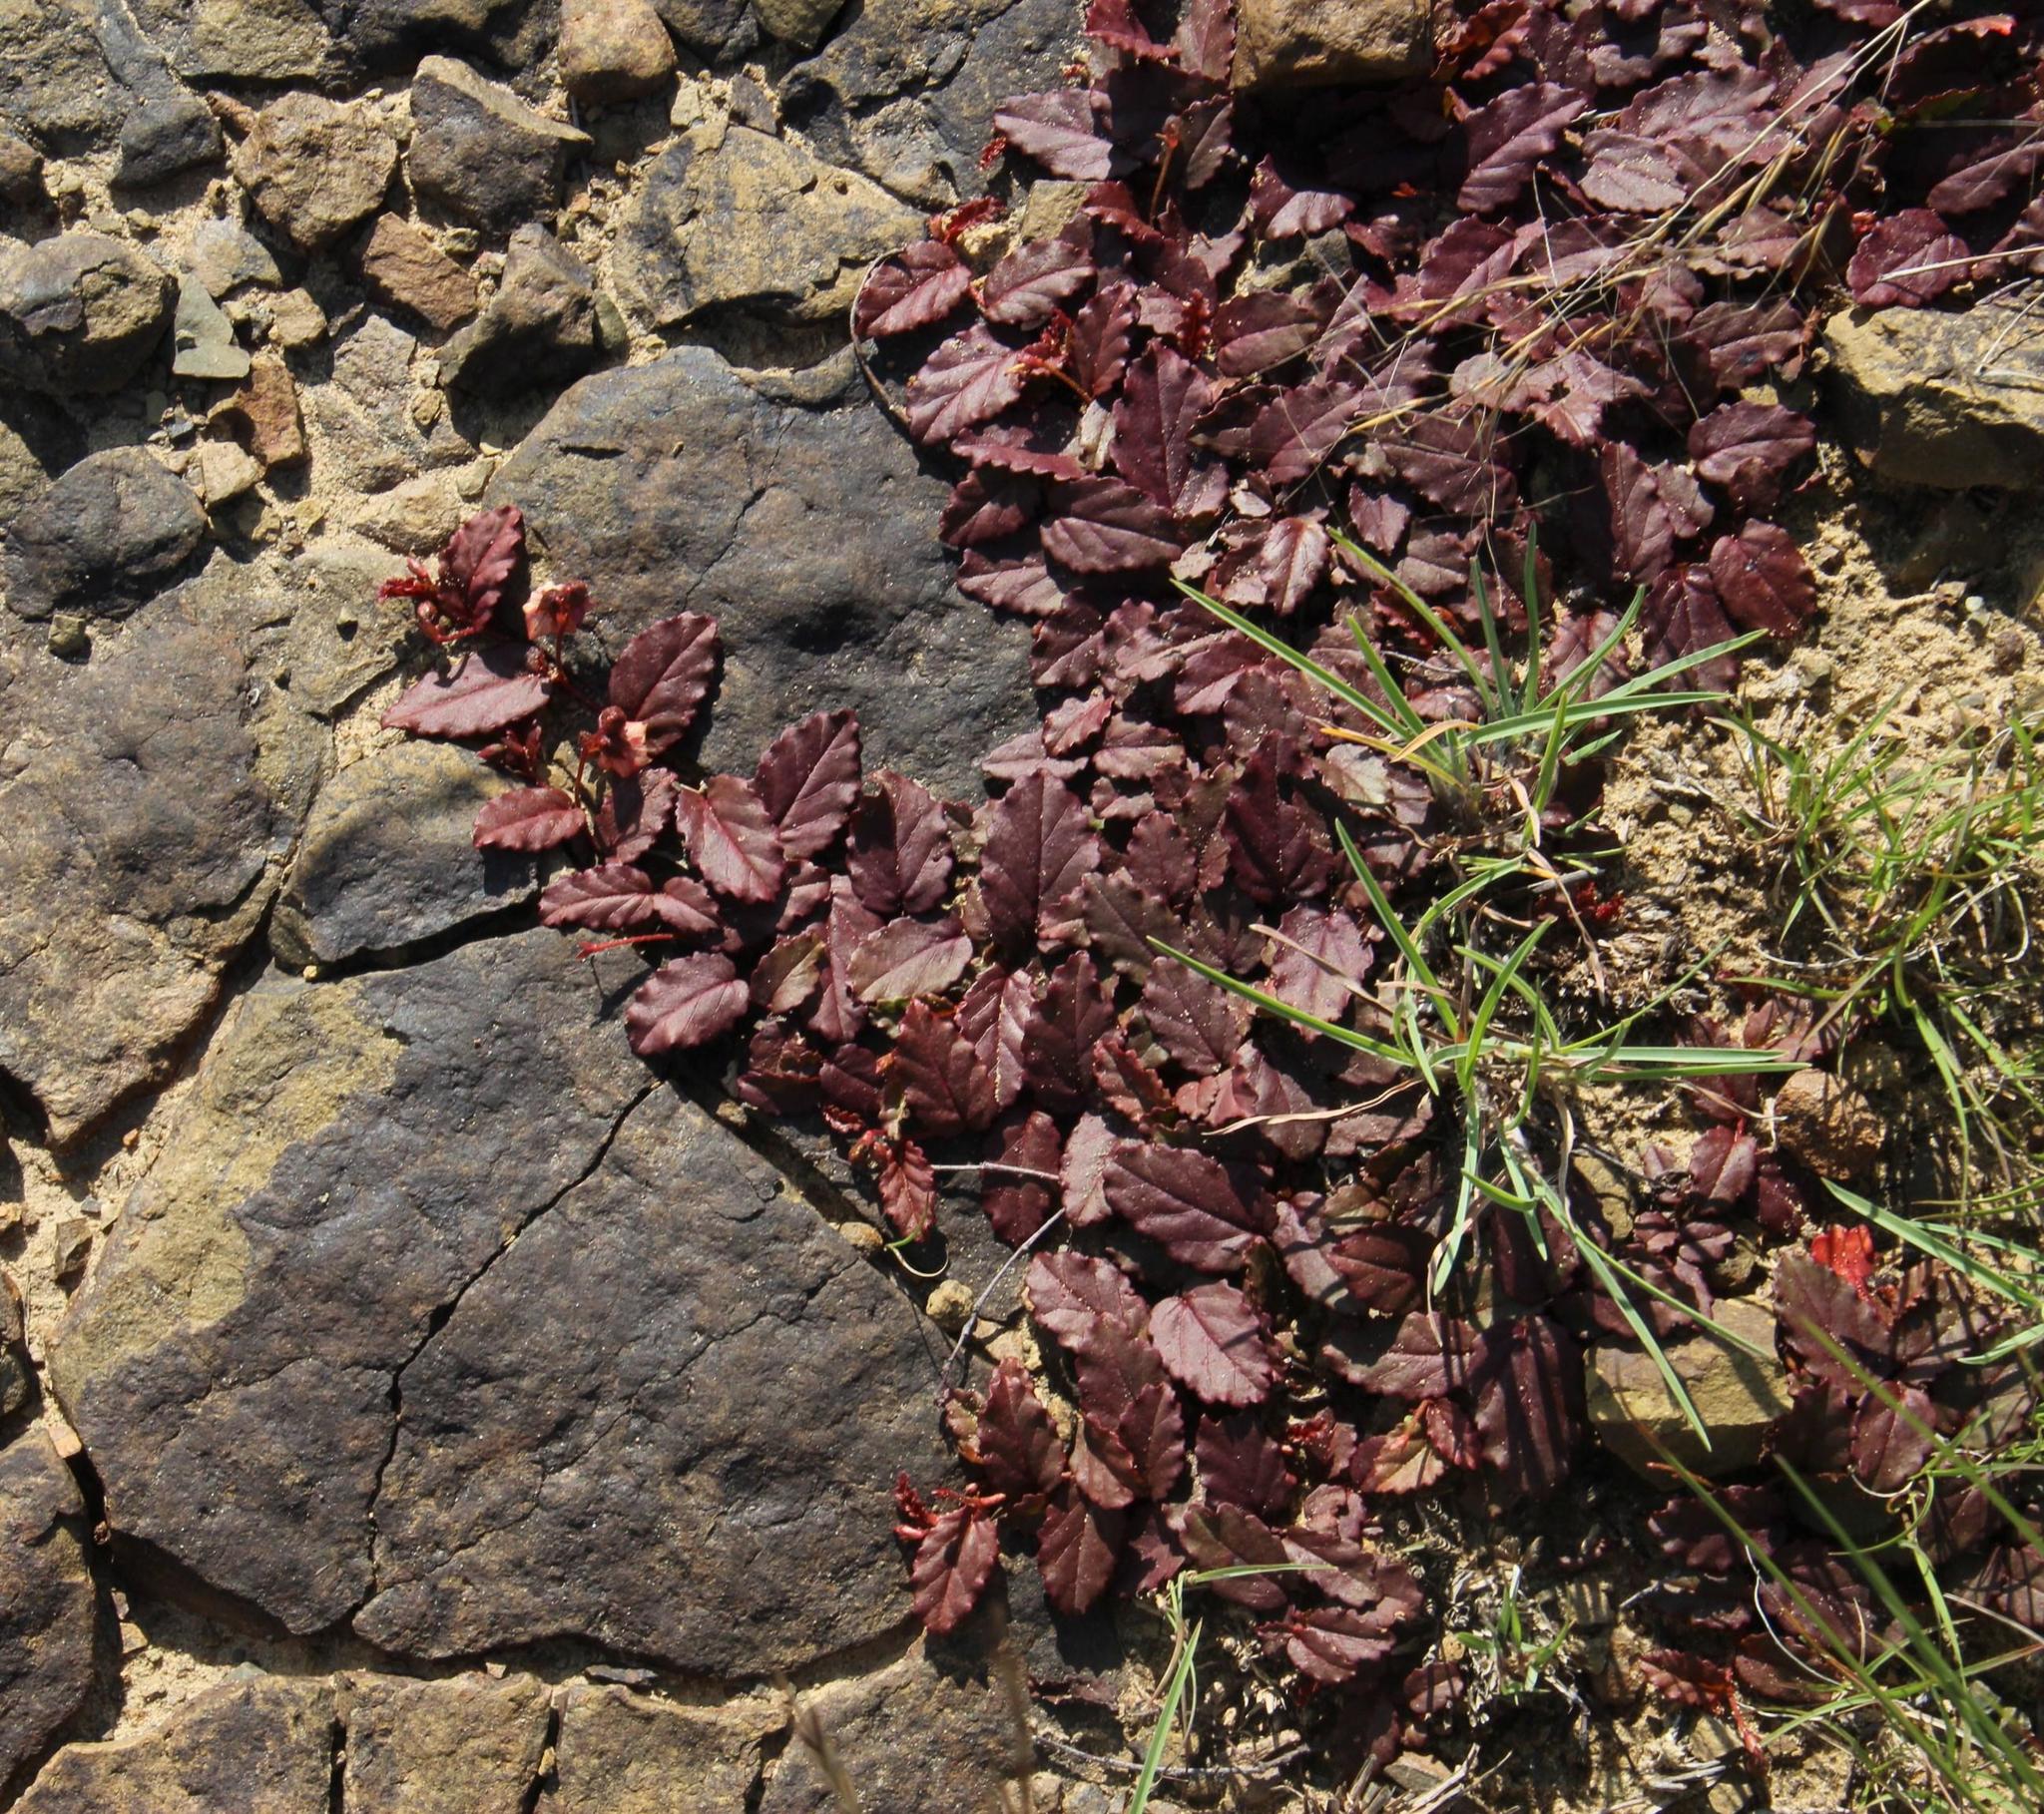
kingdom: Plantae
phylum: Tracheophyta
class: Magnoliopsida
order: Malvales
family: Malvaceae
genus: Hermannia
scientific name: Hermannia depressa
